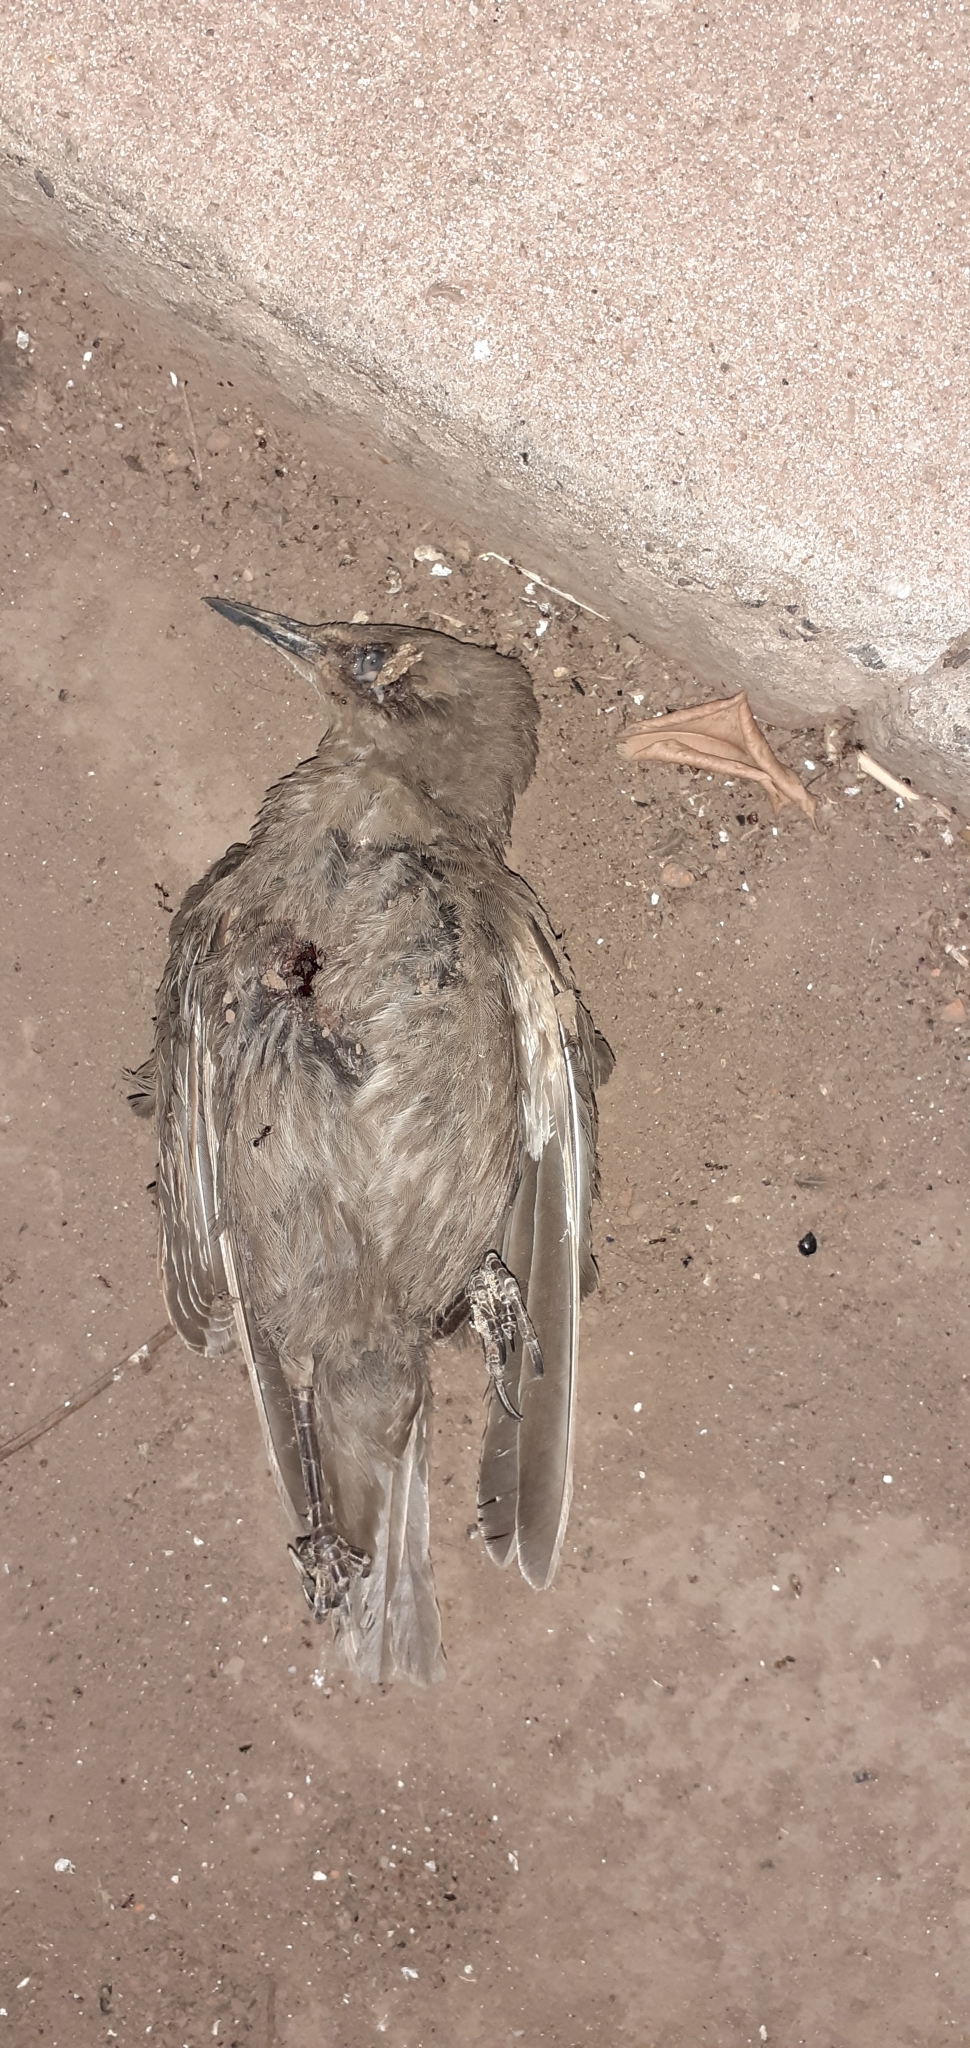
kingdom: Animalia
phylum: Chordata
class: Aves
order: Passeriformes
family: Sturnidae
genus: Sturnus
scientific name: Sturnus vulgaris
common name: Common starling
